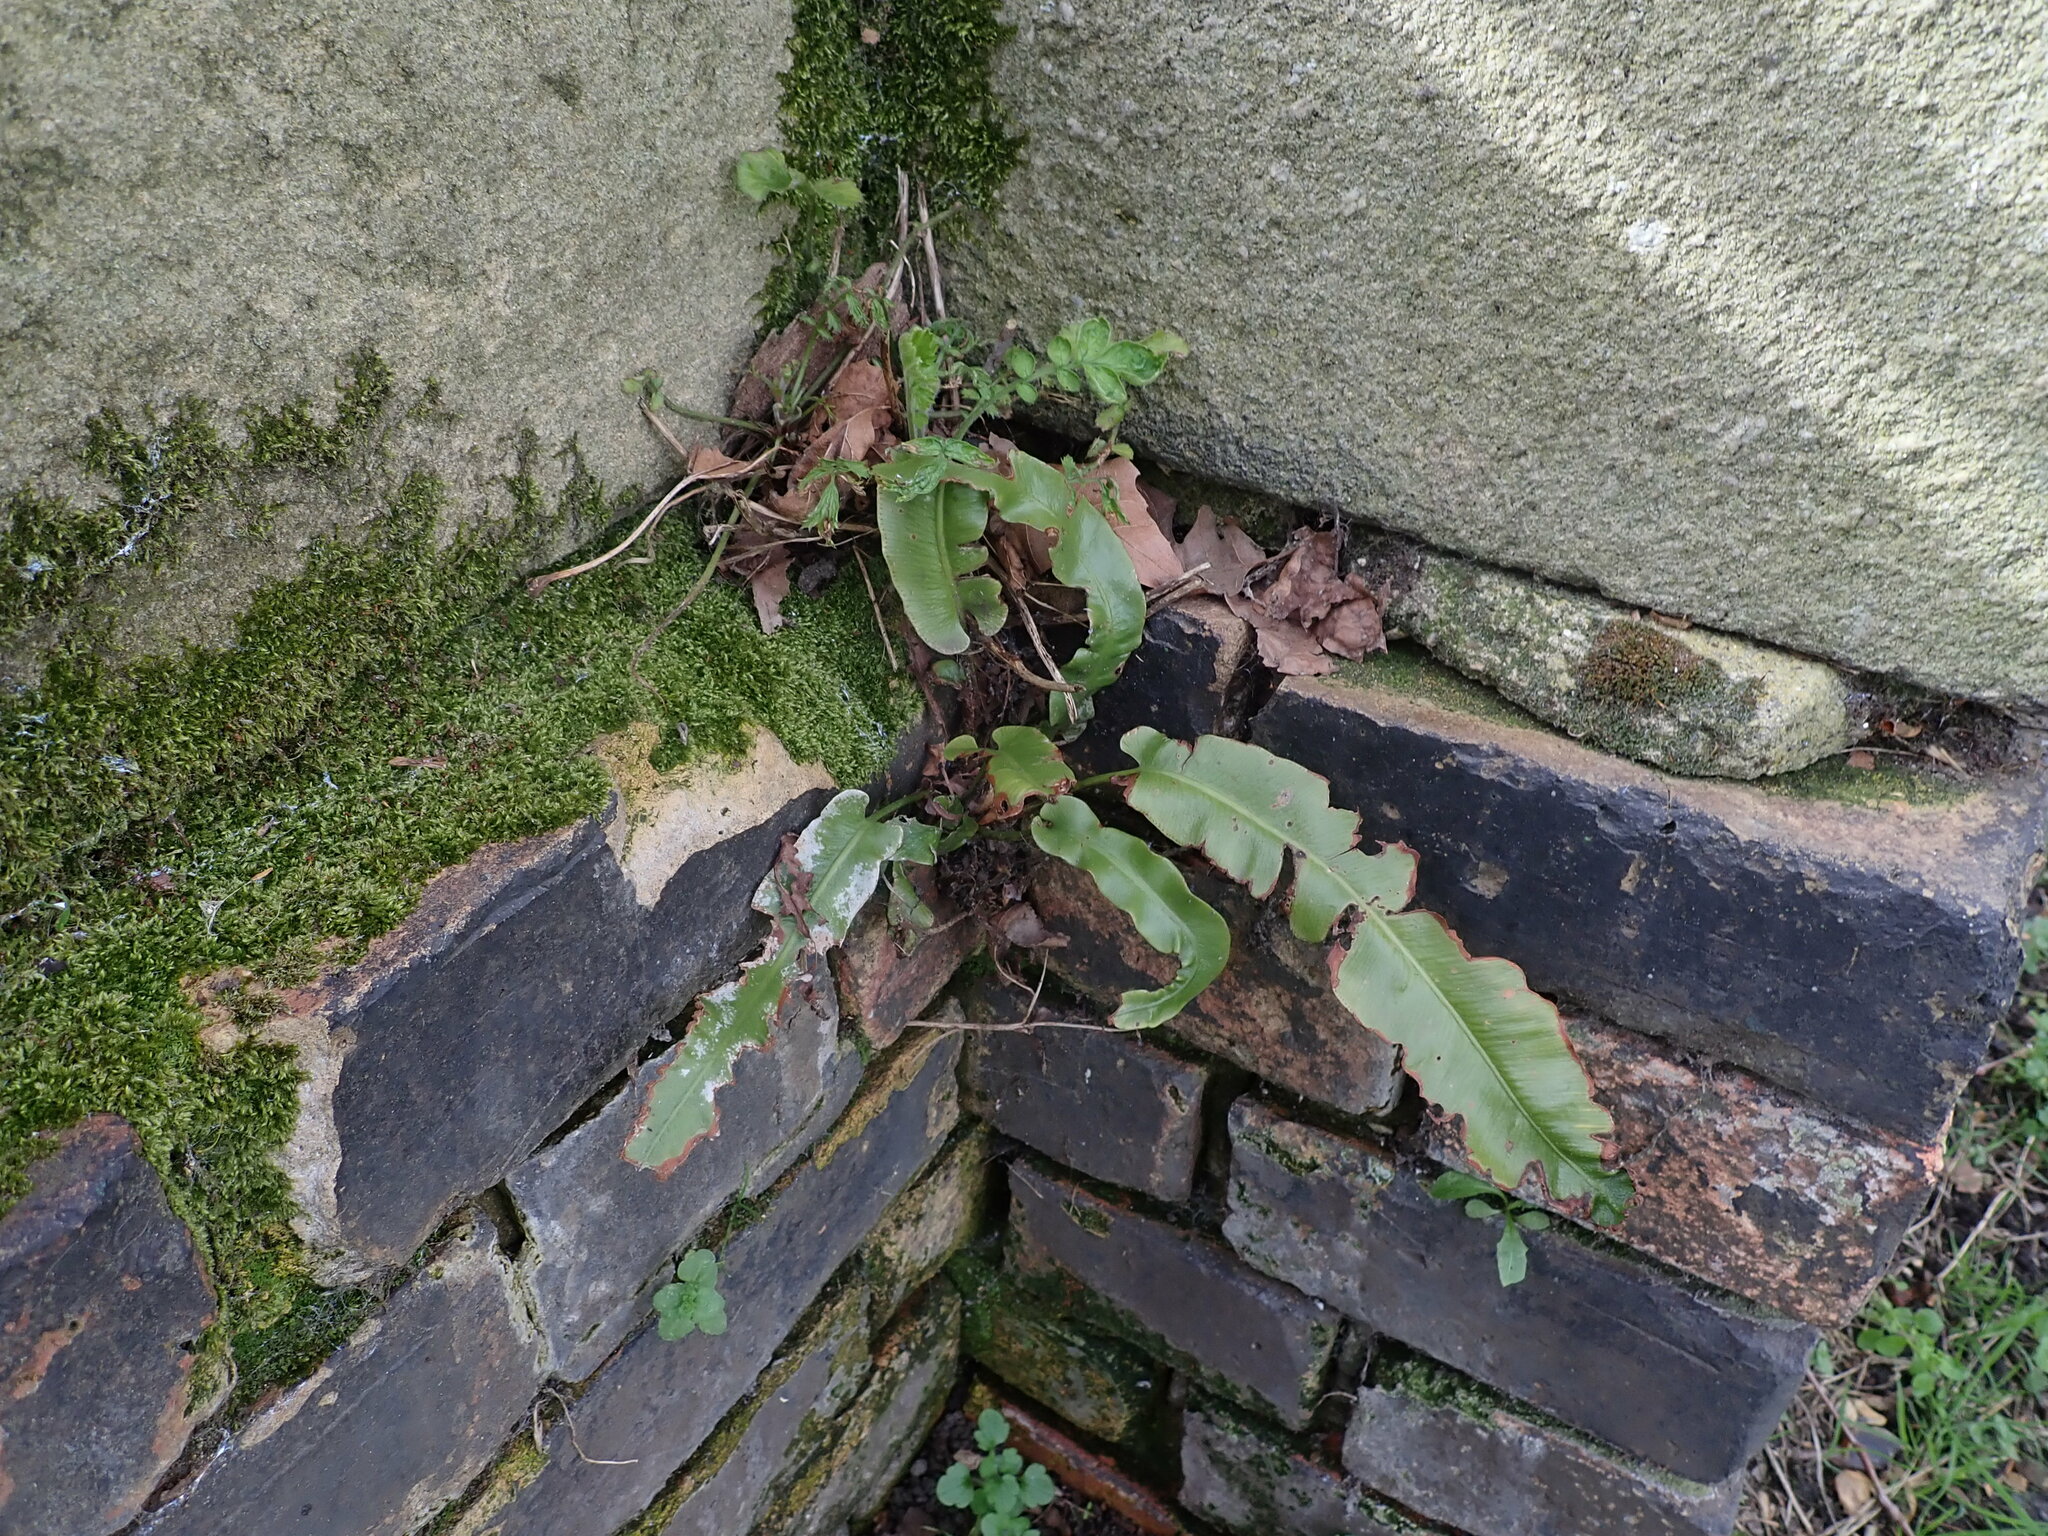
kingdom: Plantae
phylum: Tracheophyta
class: Polypodiopsida
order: Polypodiales
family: Aspleniaceae
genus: Asplenium
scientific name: Asplenium scolopendrium
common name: Hart's-tongue fern
